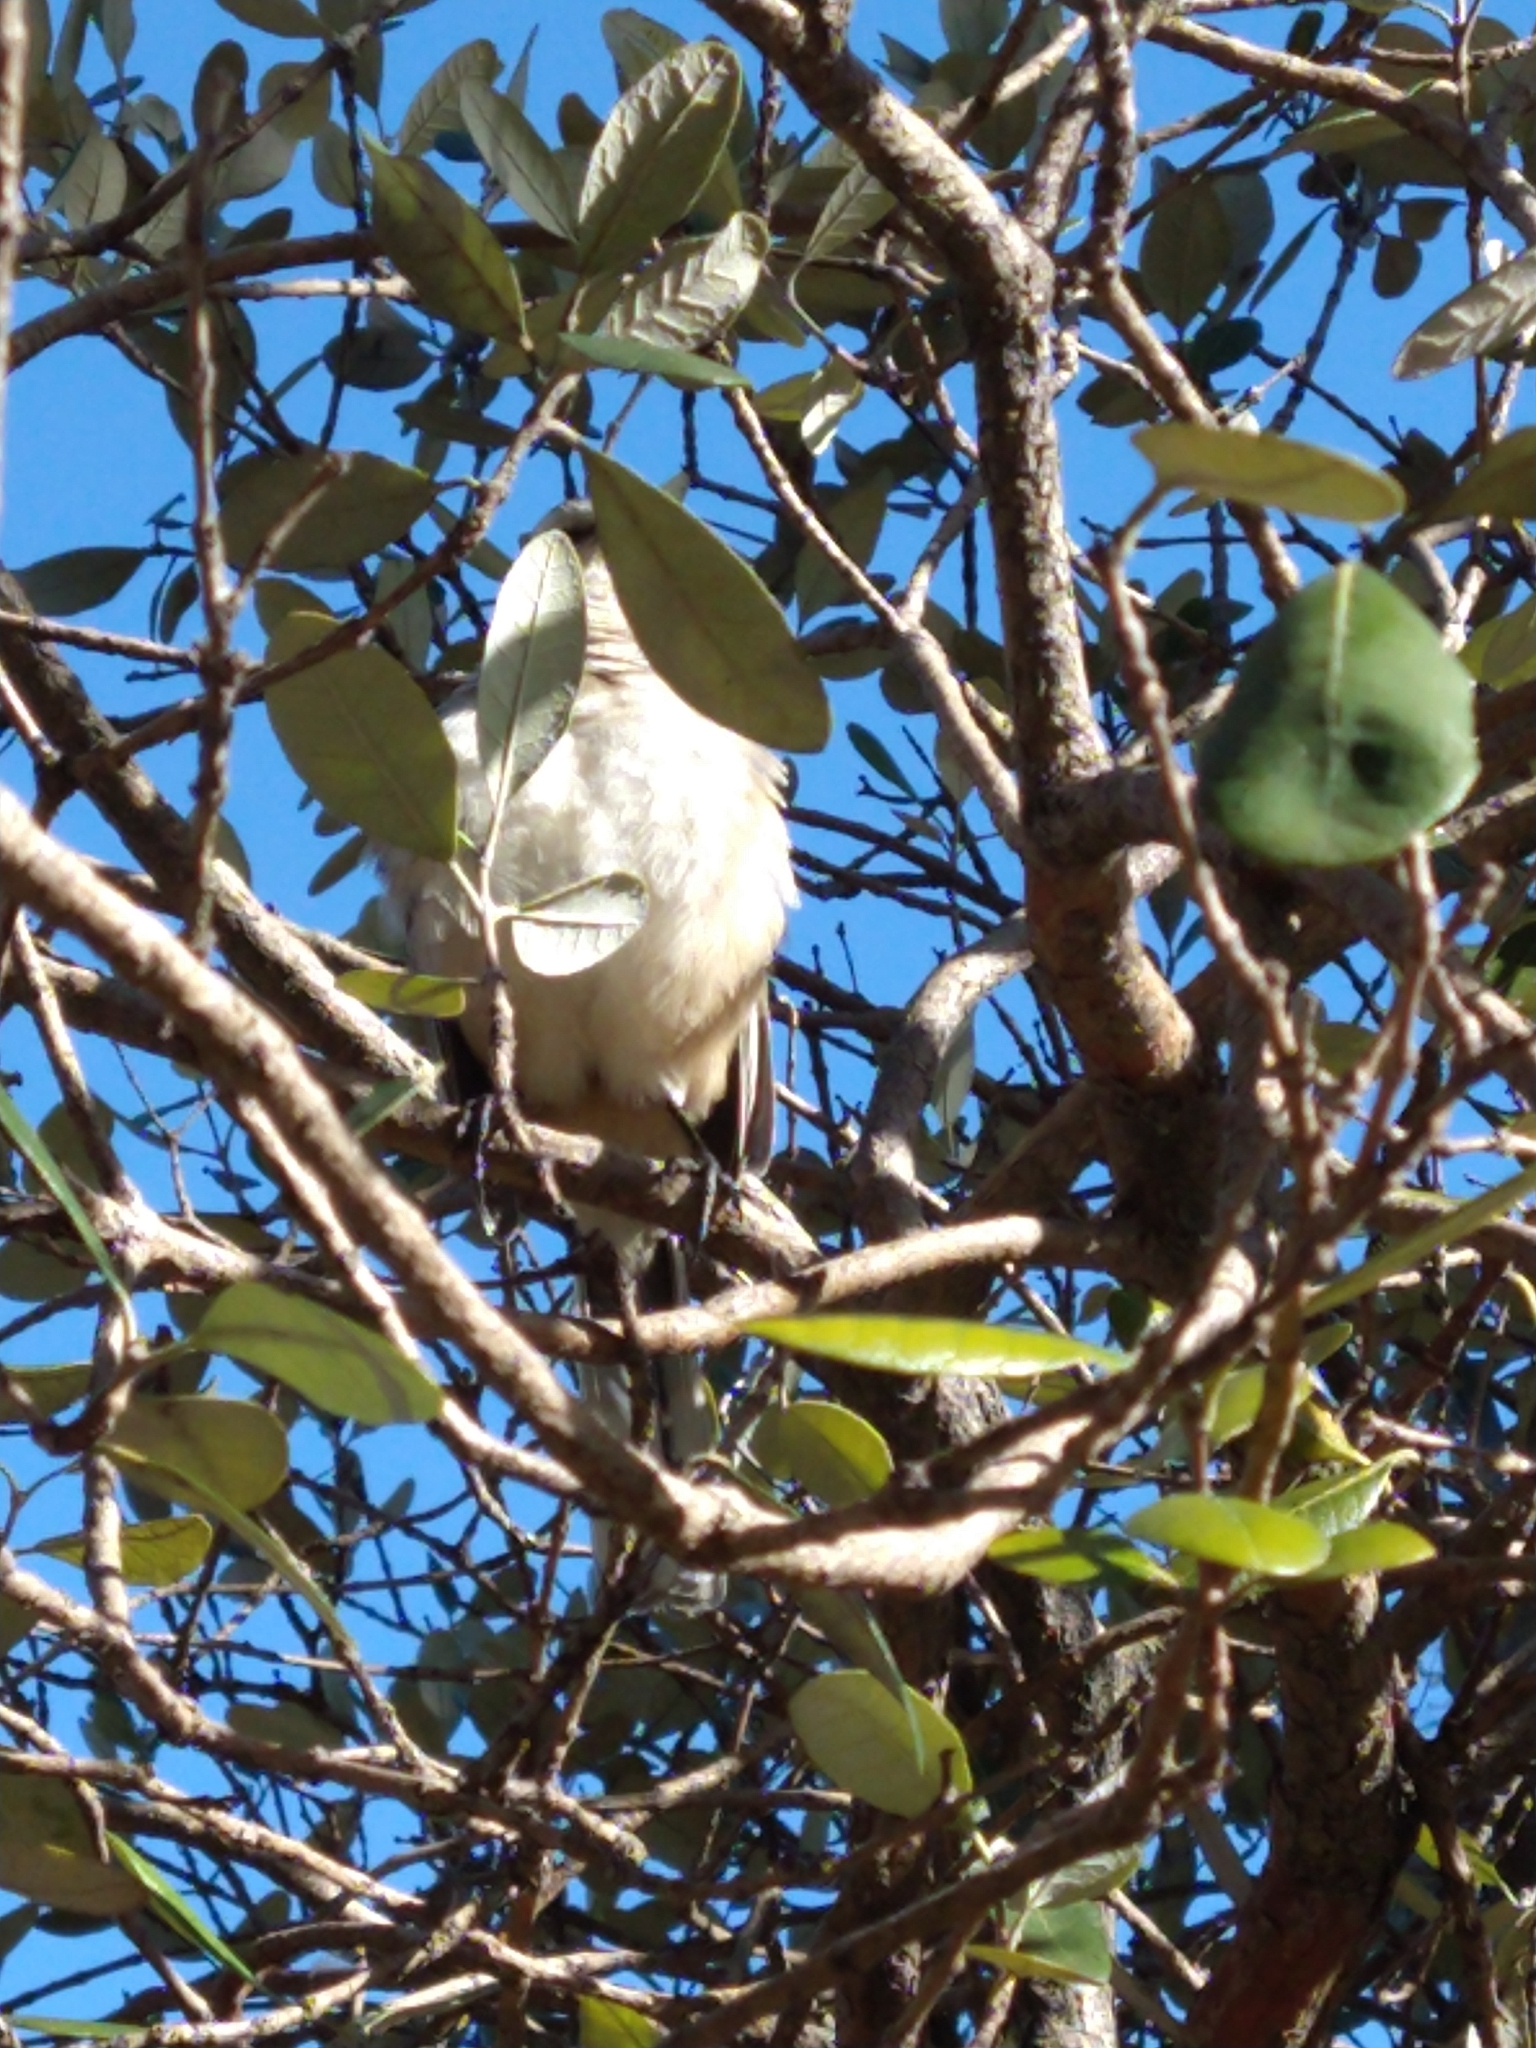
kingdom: Animalia
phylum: Chordata
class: Aves
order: Passeriformes
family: Mimidae
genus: Mimus
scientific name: Mimus saturninus
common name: Chalk-browed mockingbird
